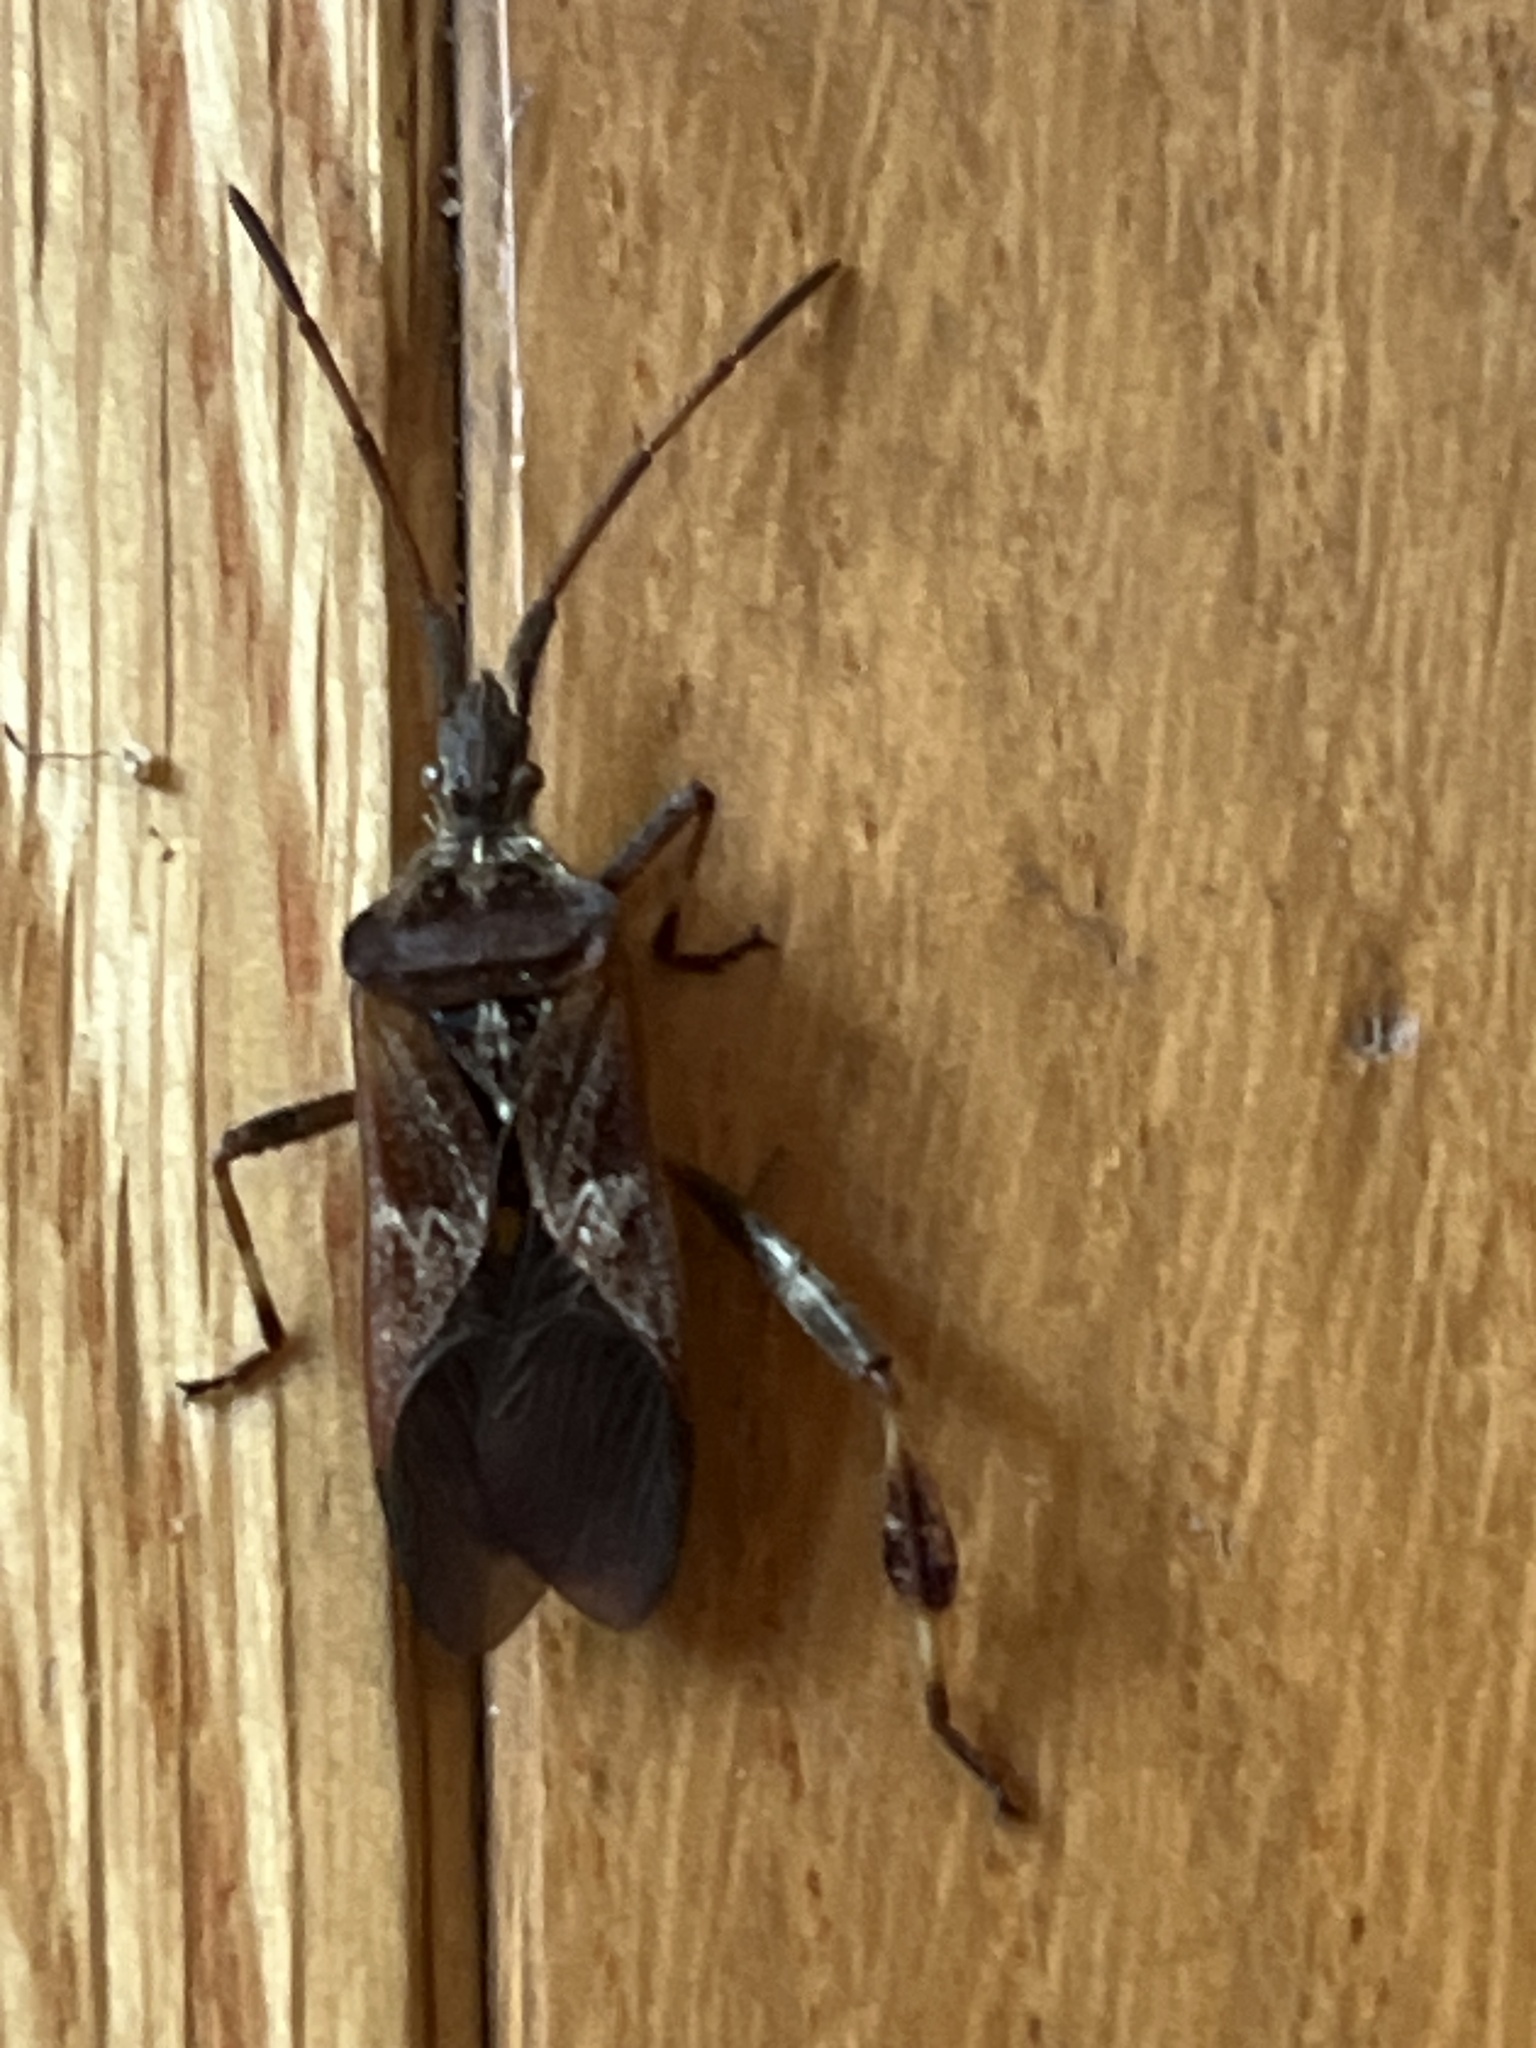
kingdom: Animalia
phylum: Arthropoda
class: Insecta
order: Hemiptera
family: Coreidae
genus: Leptoglossus
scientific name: Leptoglossus occidentalis
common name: Western conifer-seed bug
